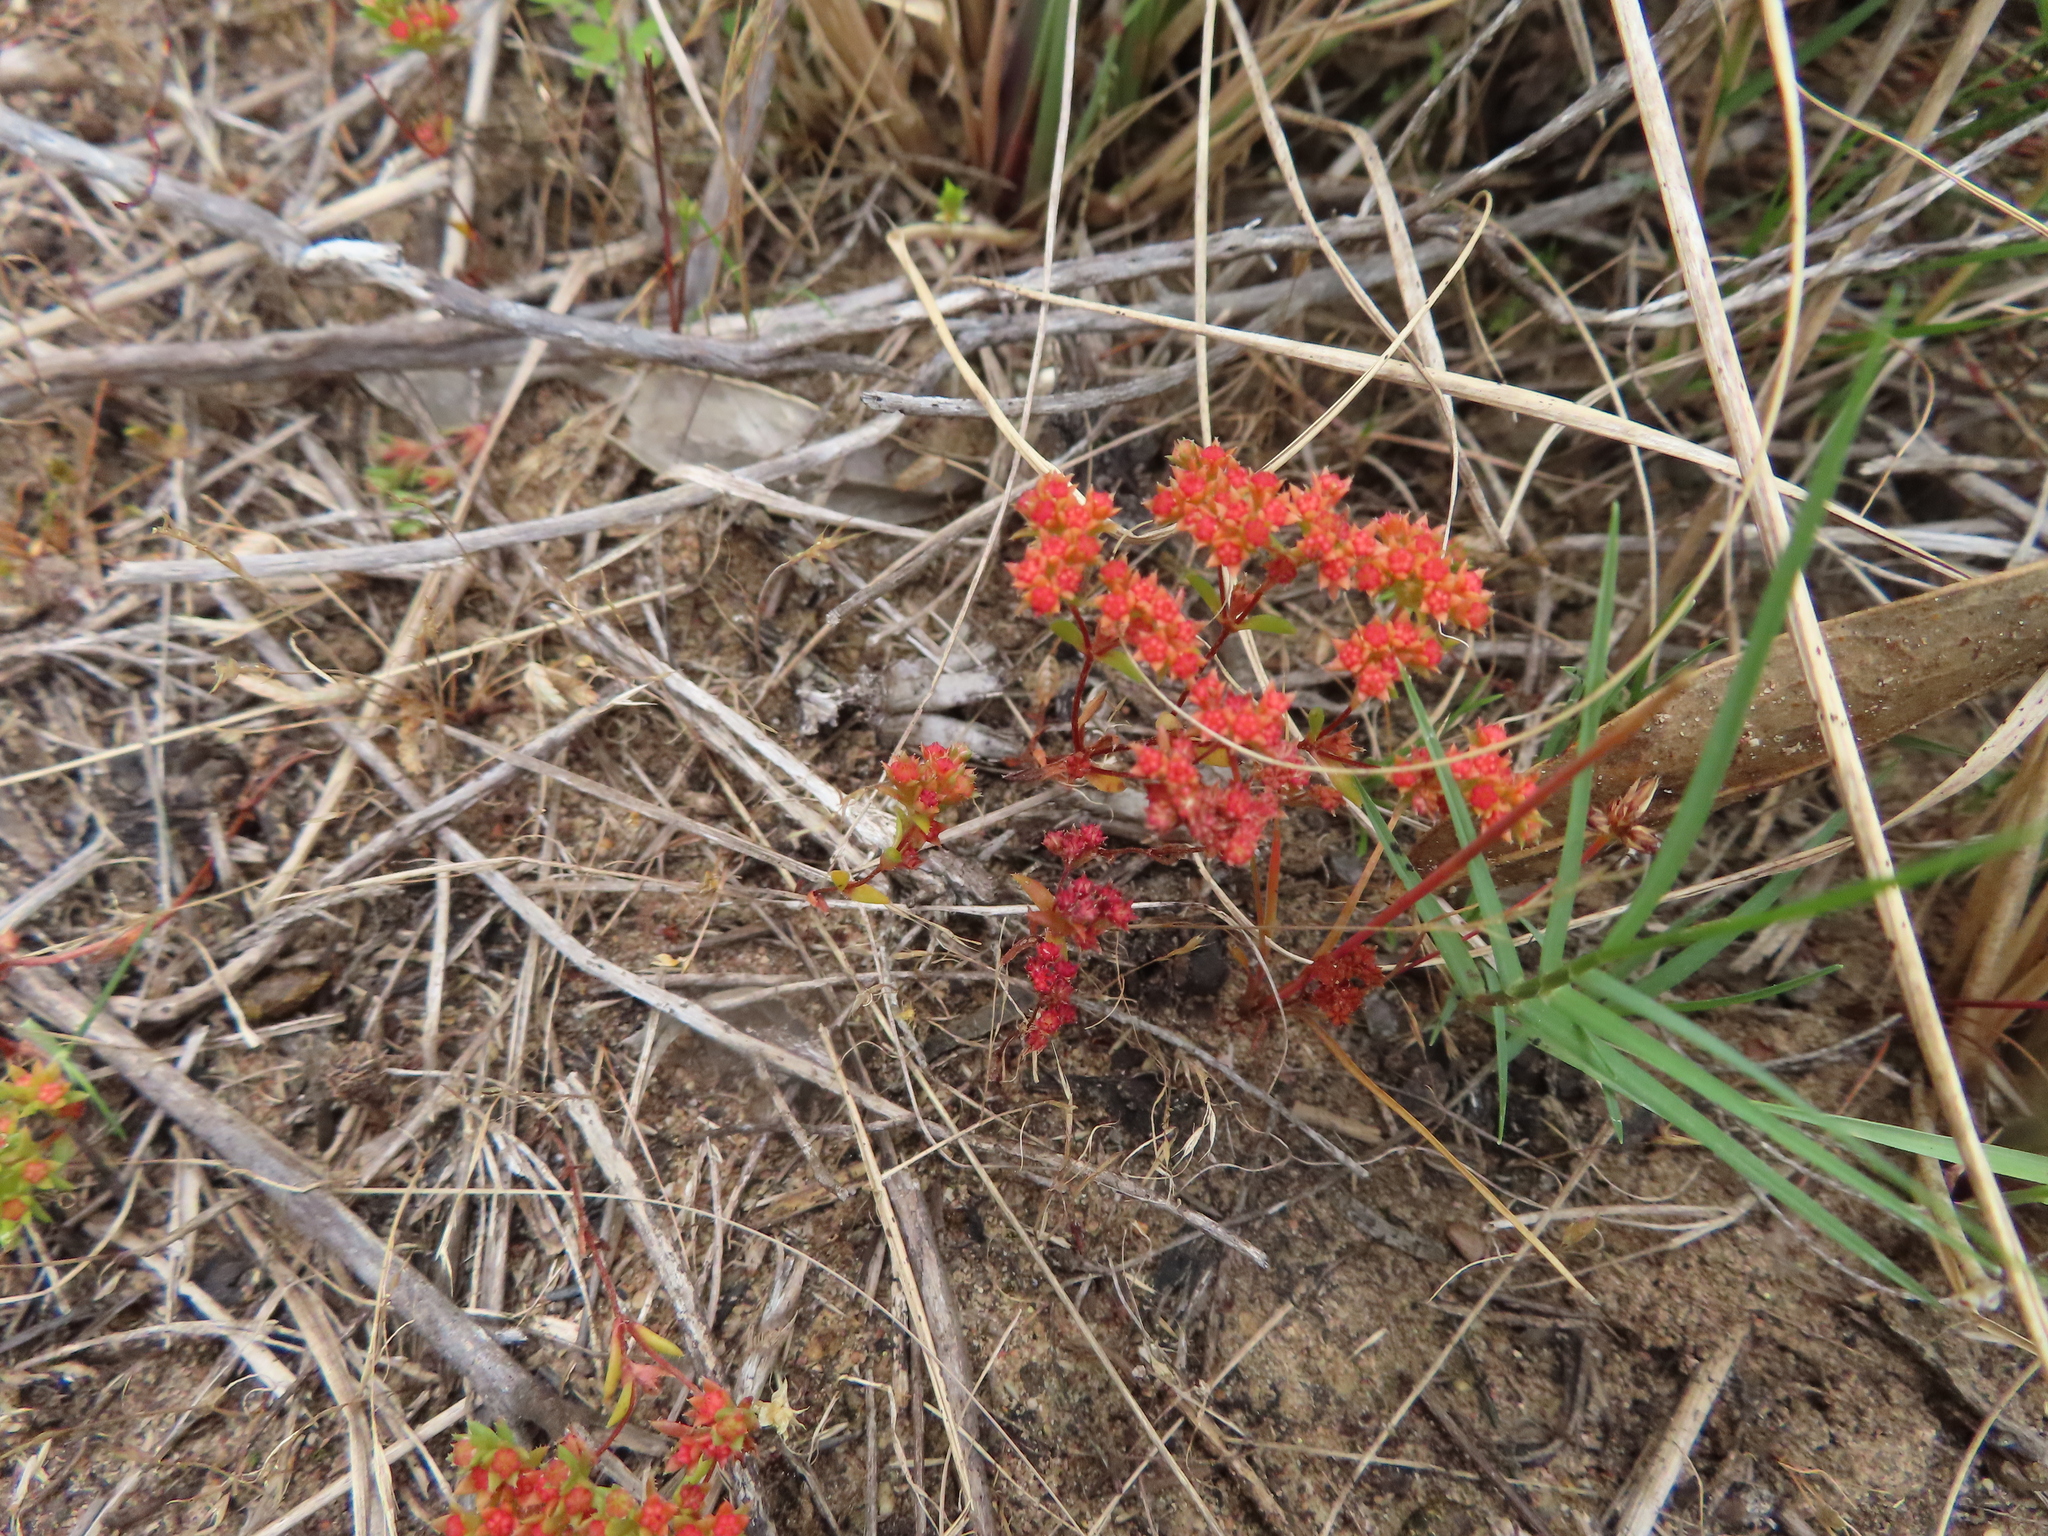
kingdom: Plantae
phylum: Tracheophyta
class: Magnoliopsida
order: Saxifragales
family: Crassulaceae
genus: Crassula
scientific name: Crassula glomerata
